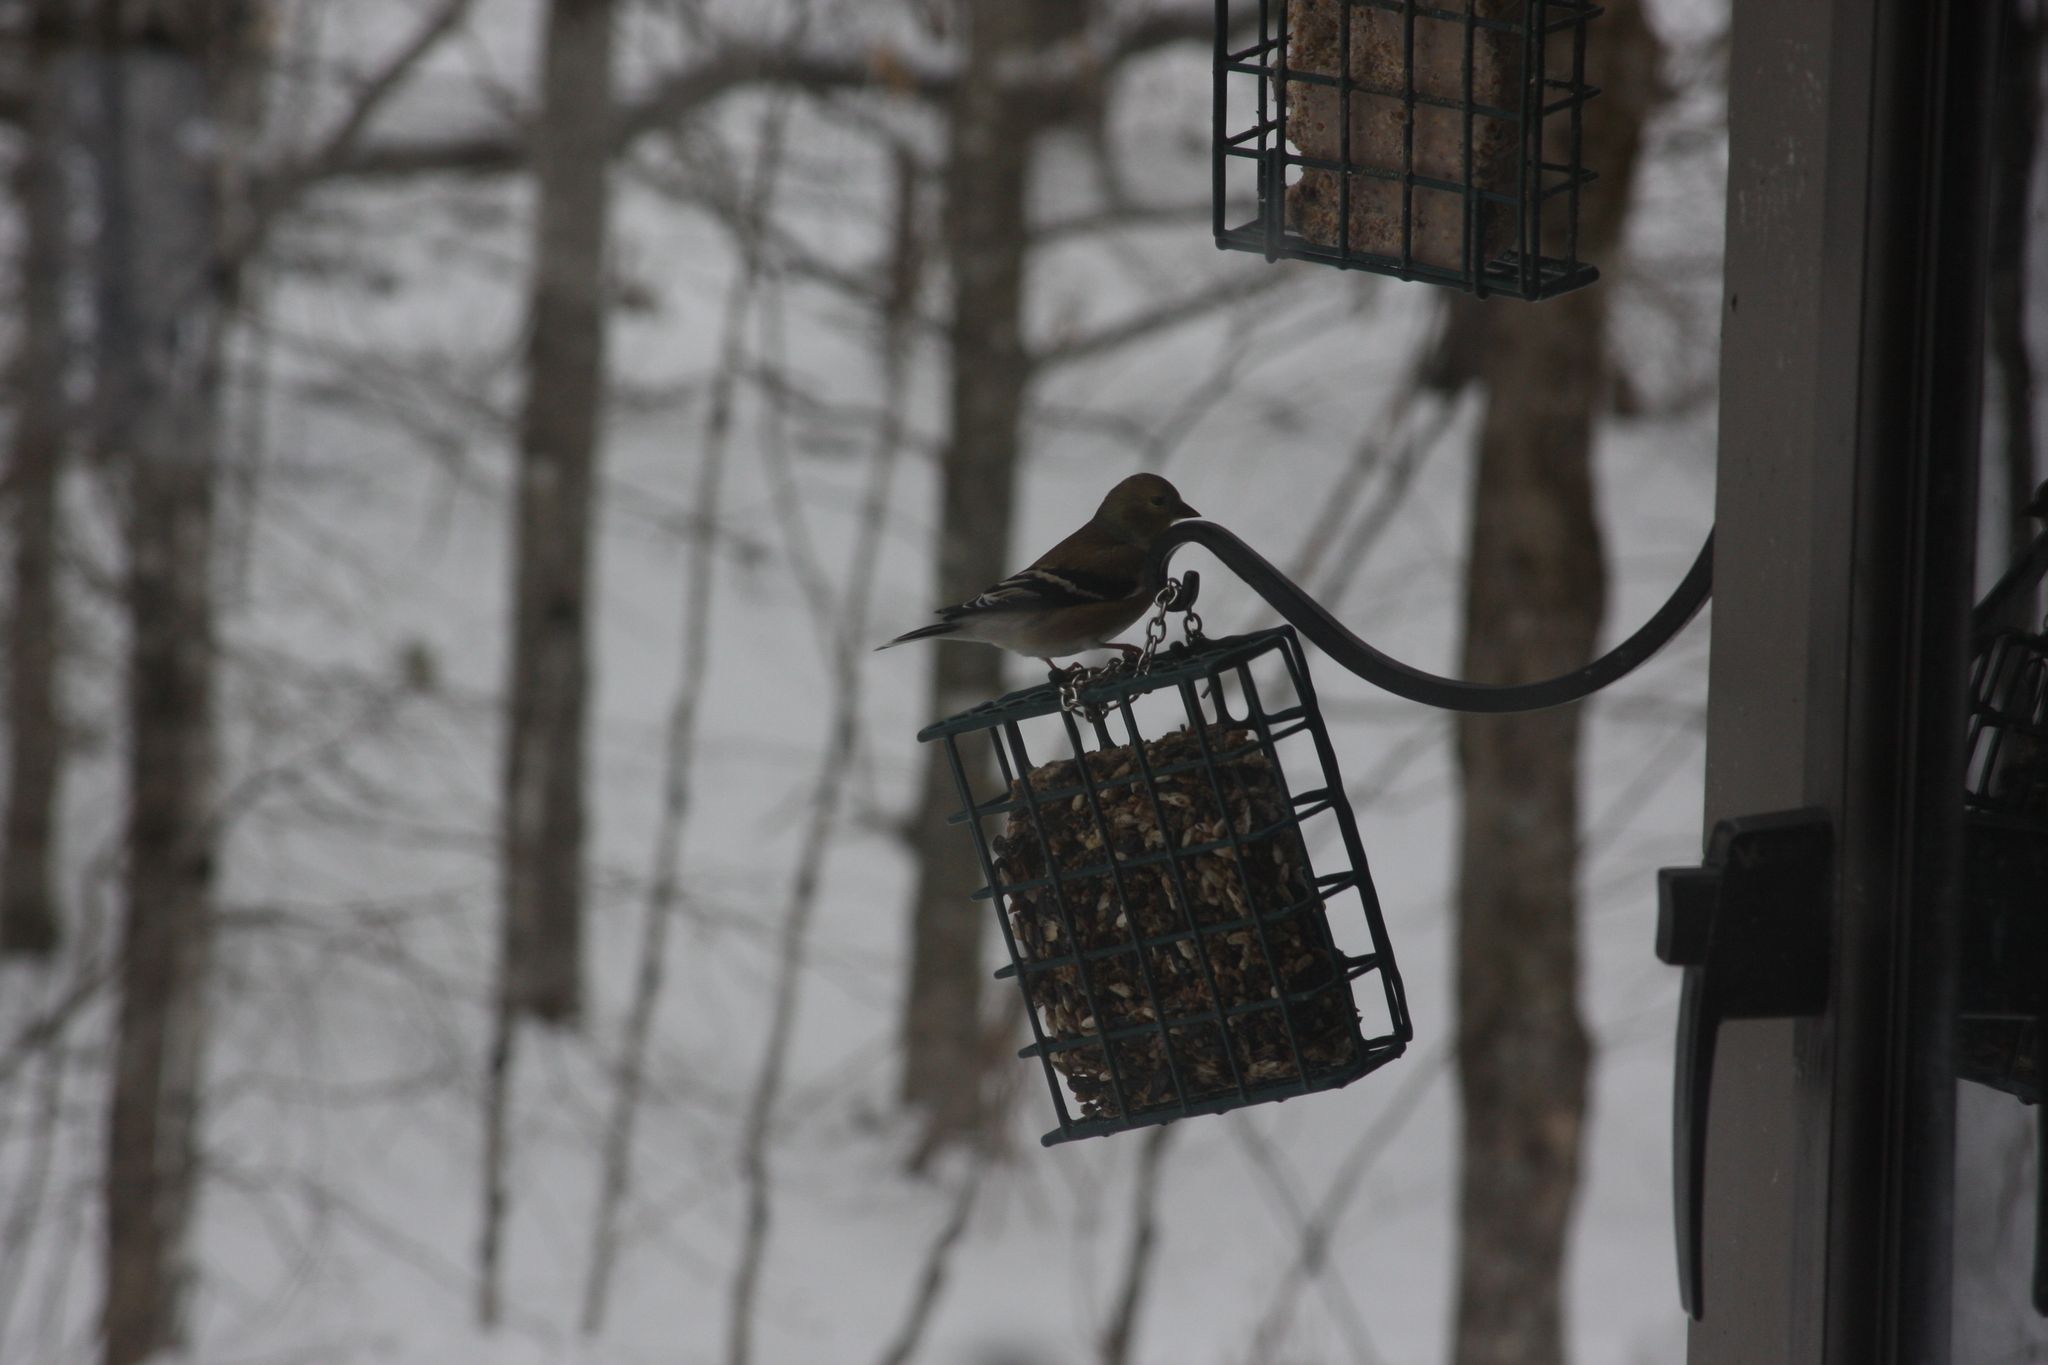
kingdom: Animalia
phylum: Chordata
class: Aves
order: Passeriformes
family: Fringillidae
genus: Spinus
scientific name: Spinus tristis
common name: American goldfinch
